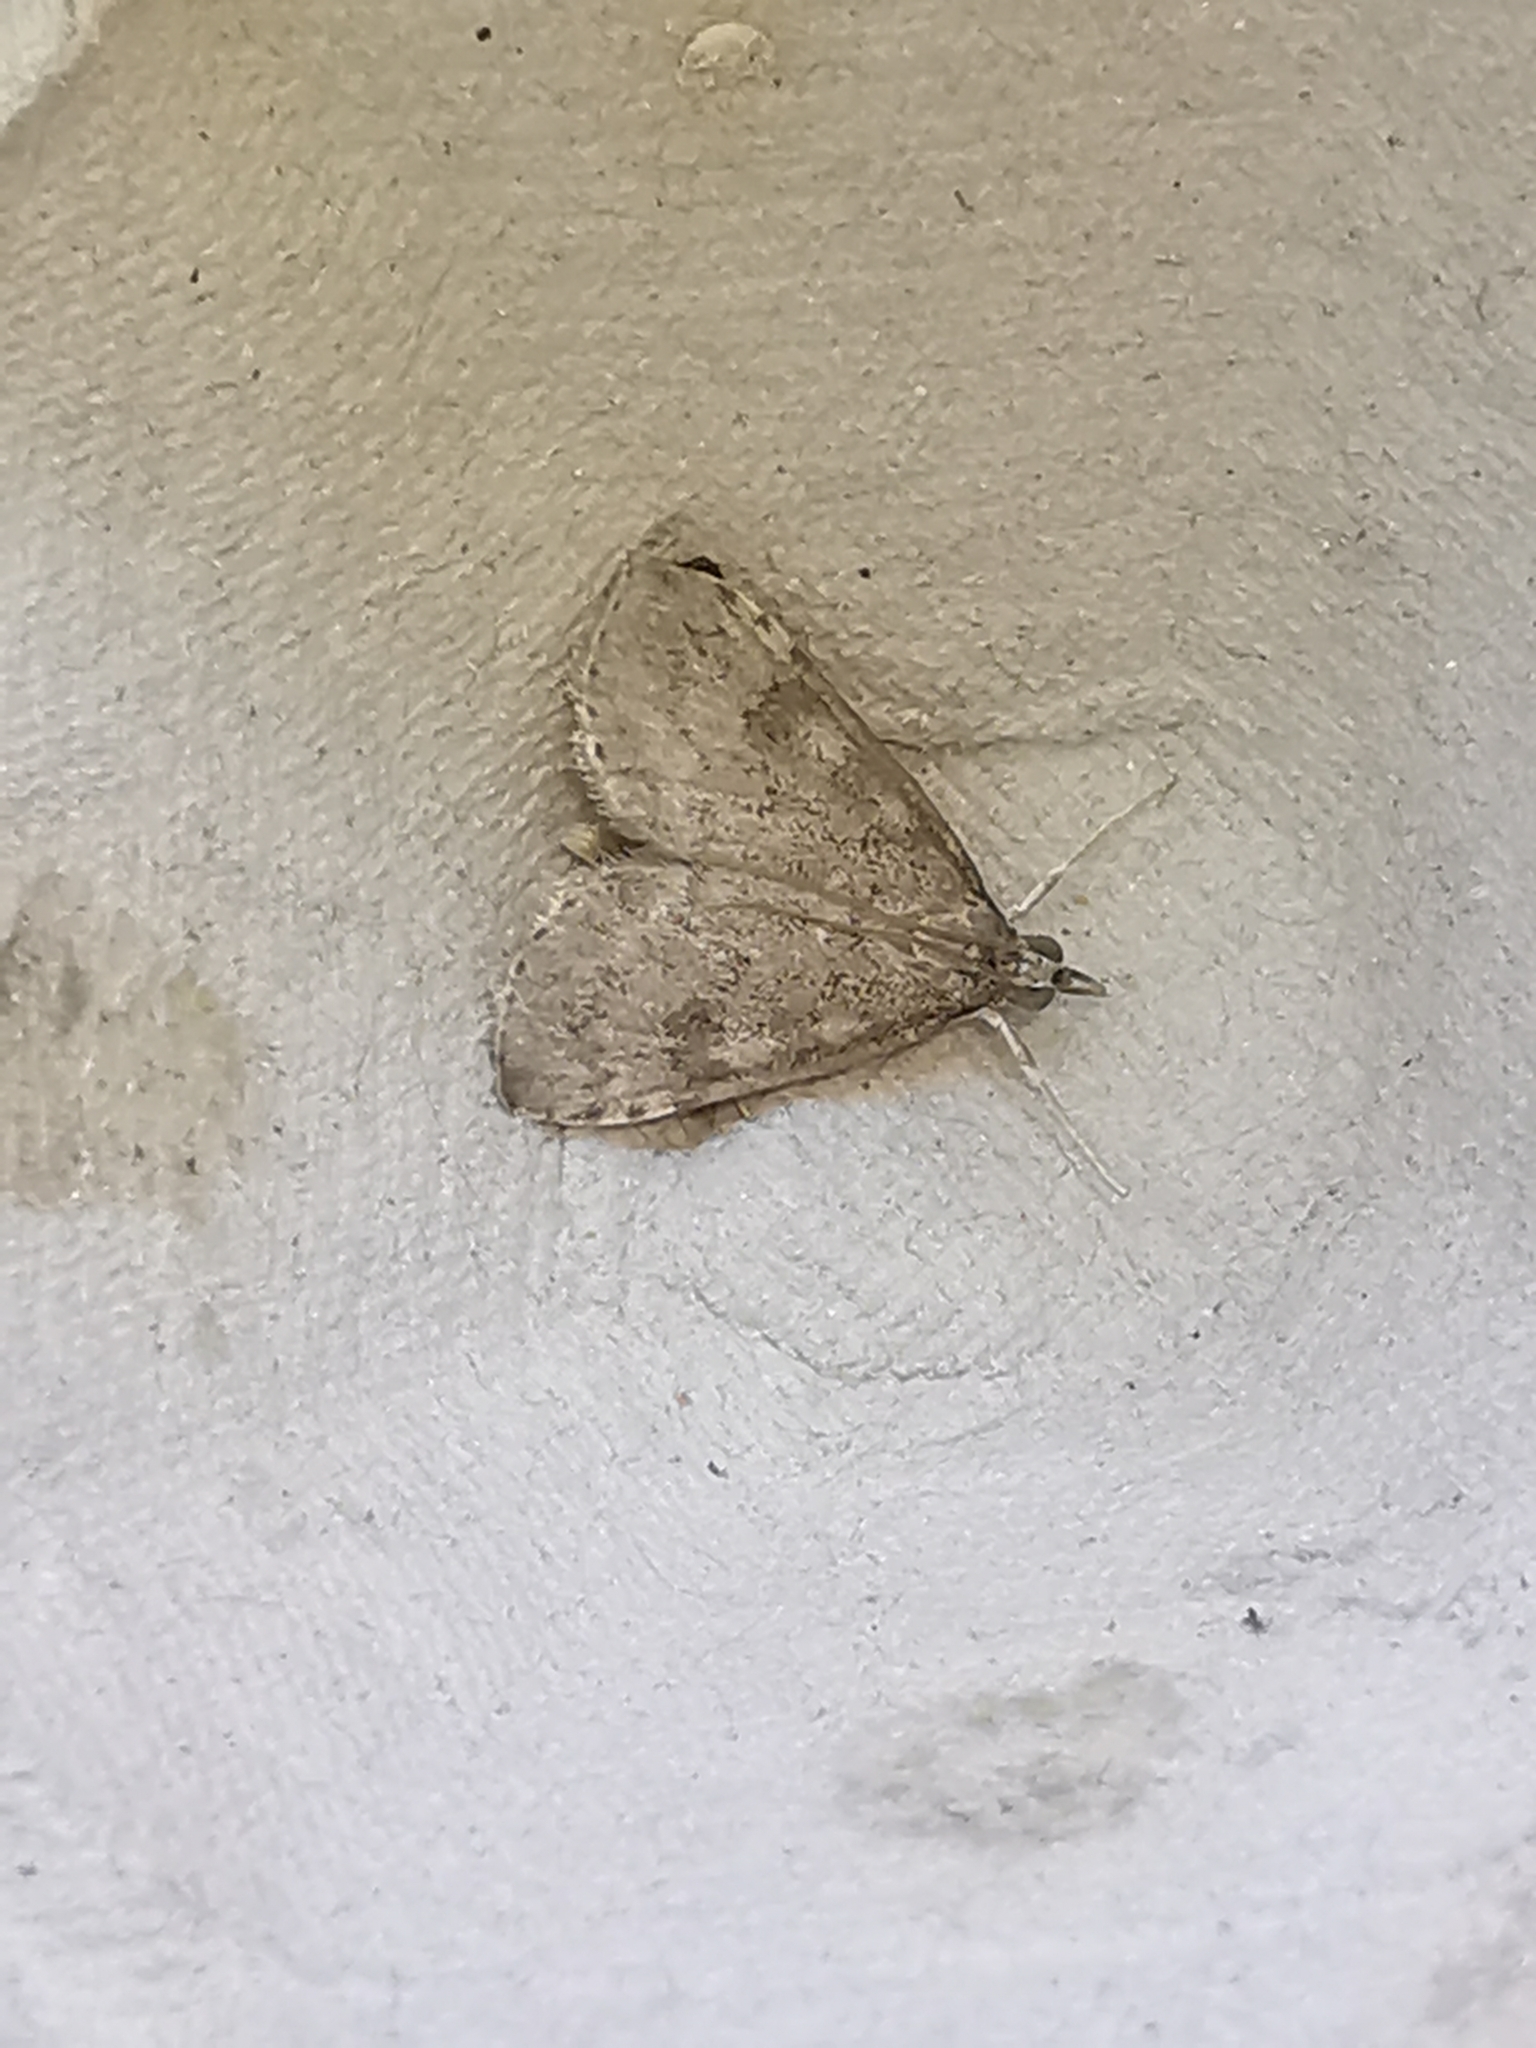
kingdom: Animalia
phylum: Arthropoda
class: Insecta
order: Lepidoptera
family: Crambidae
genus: Udea
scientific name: Udea prunalis
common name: Dusky pearl
